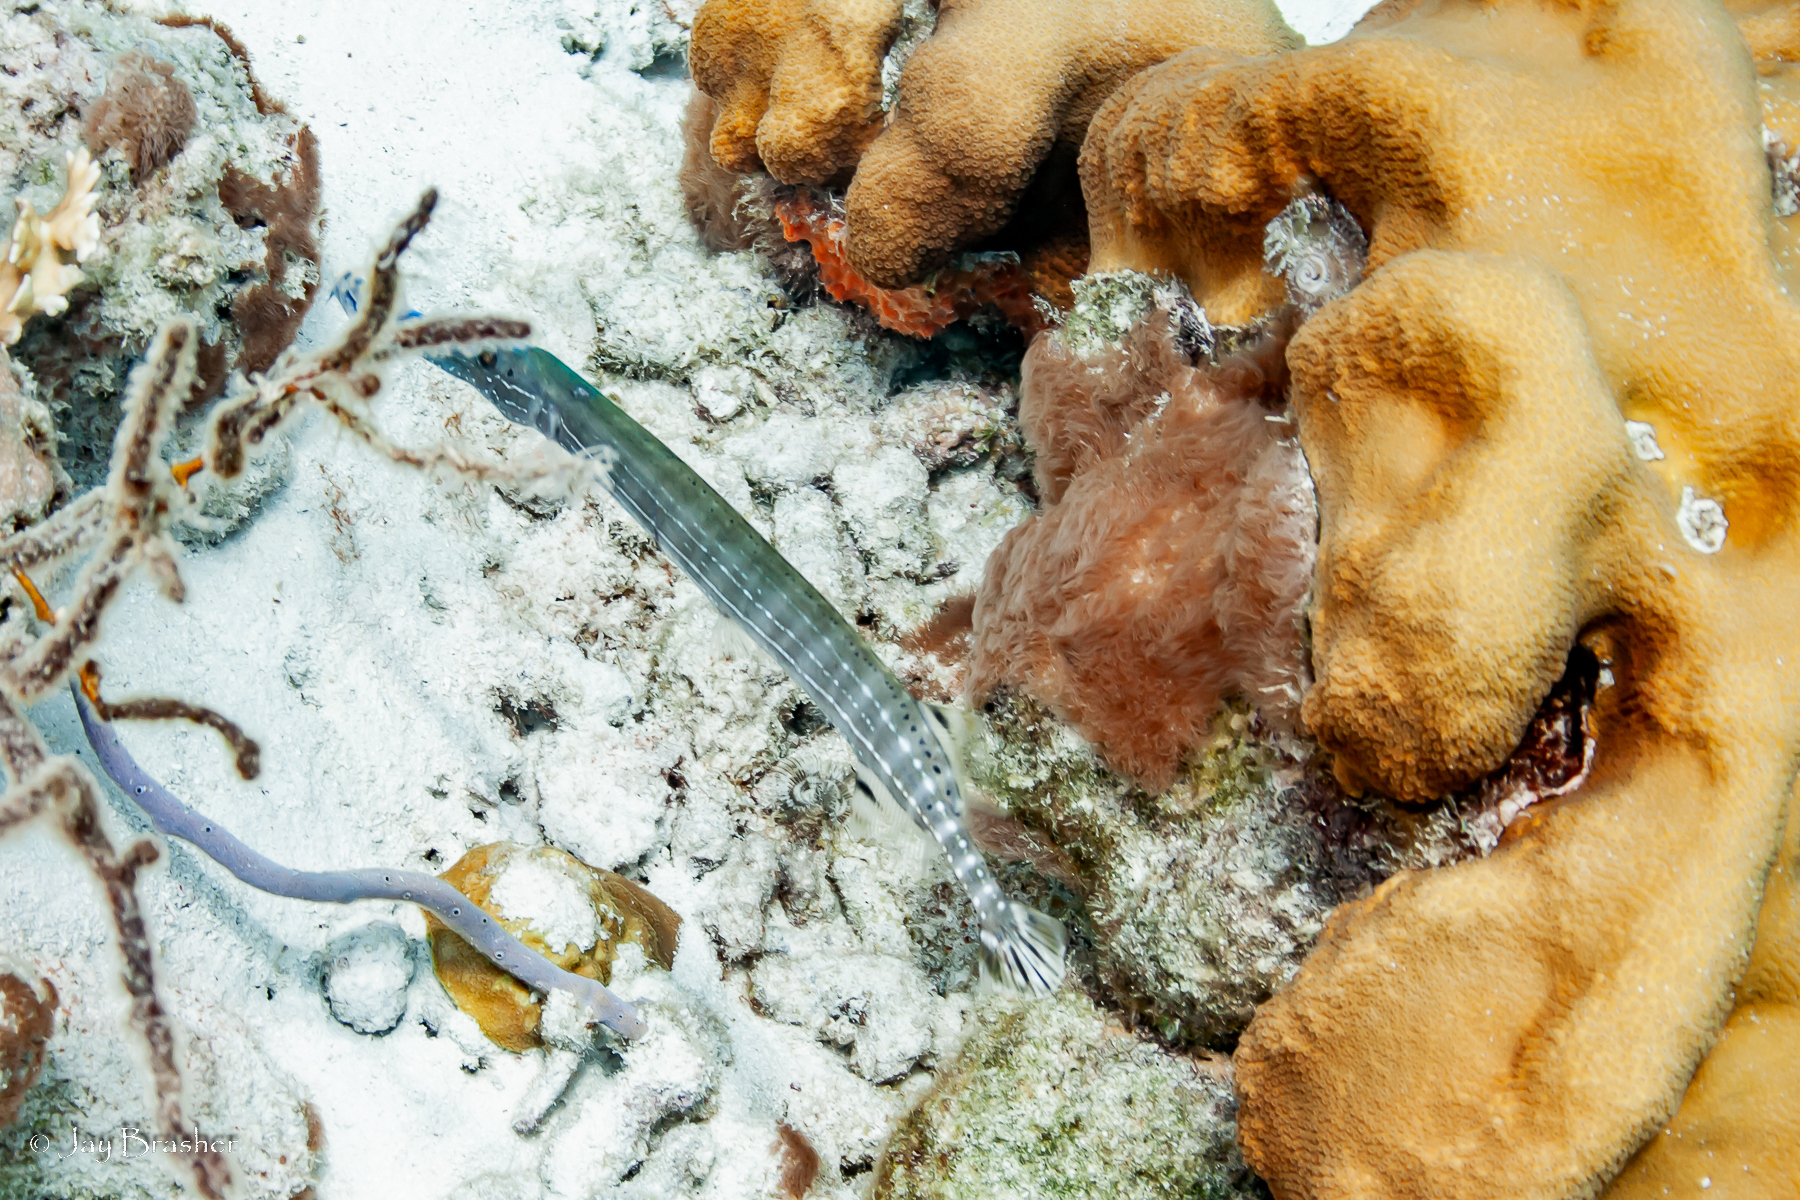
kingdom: Animalia
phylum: Cnidaria
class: Anthozoa
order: Scleralcyonacea
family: Erythropodiidae
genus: Erythropodium
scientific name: Erythropodium caribaeorum
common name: Encrusting gorgonian
